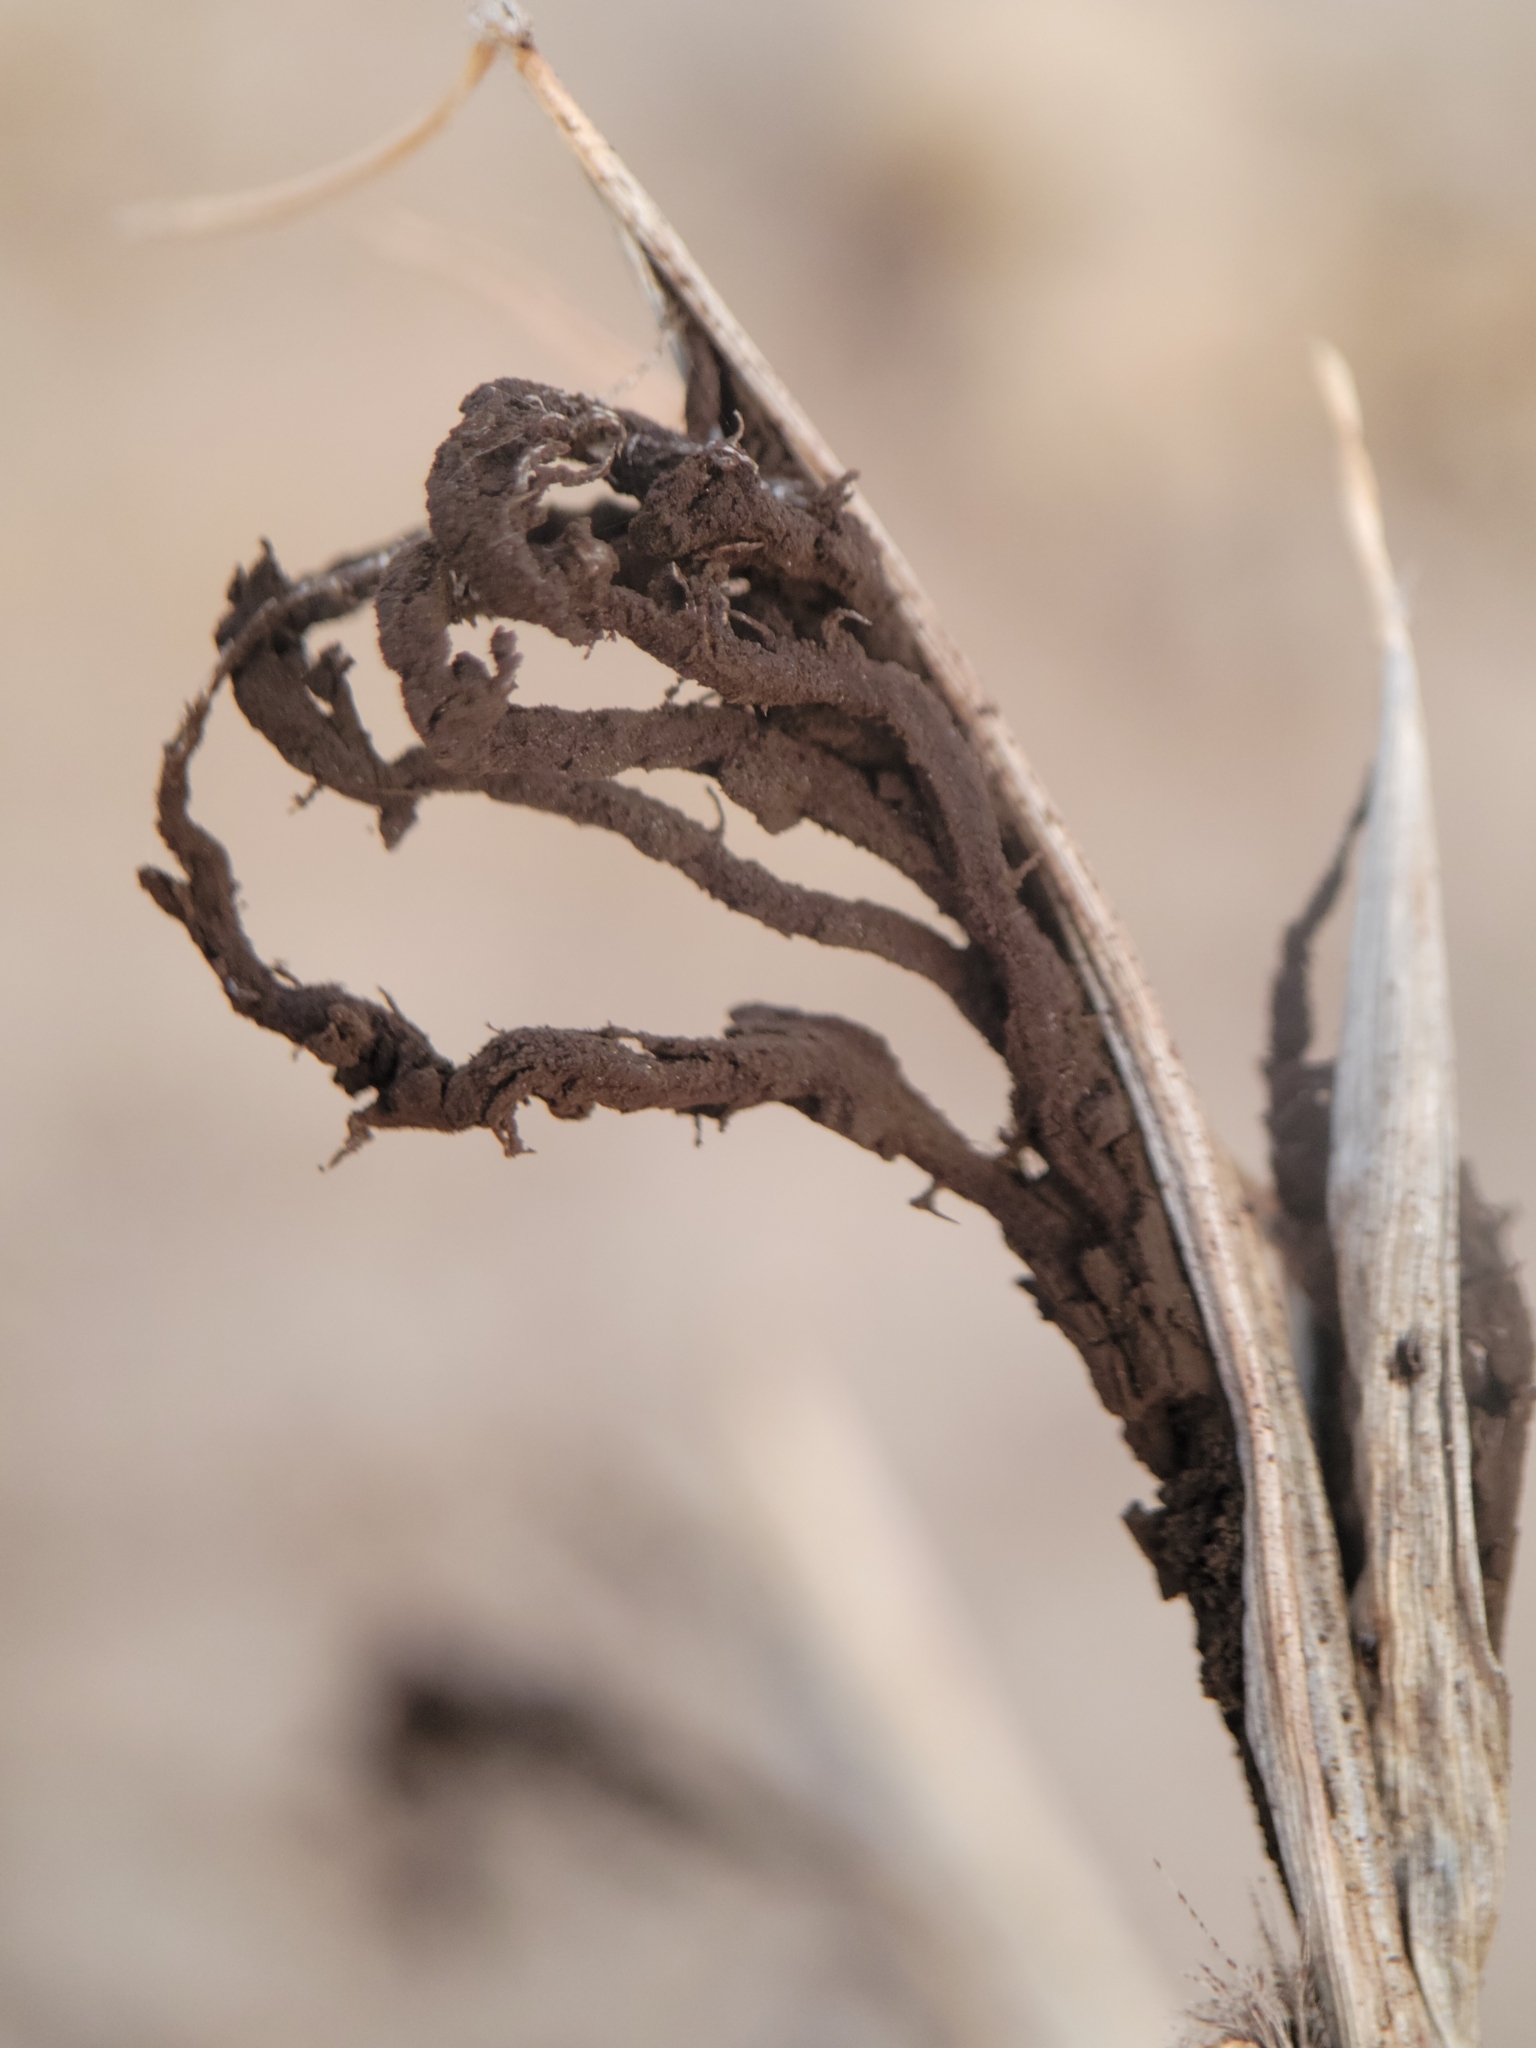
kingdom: Fungi
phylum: Basidiomycota
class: Ustilaginomycetes
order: Ustilaginales
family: Ustilaginaceae
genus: Ustilago
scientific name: Ustilago cynodontis
